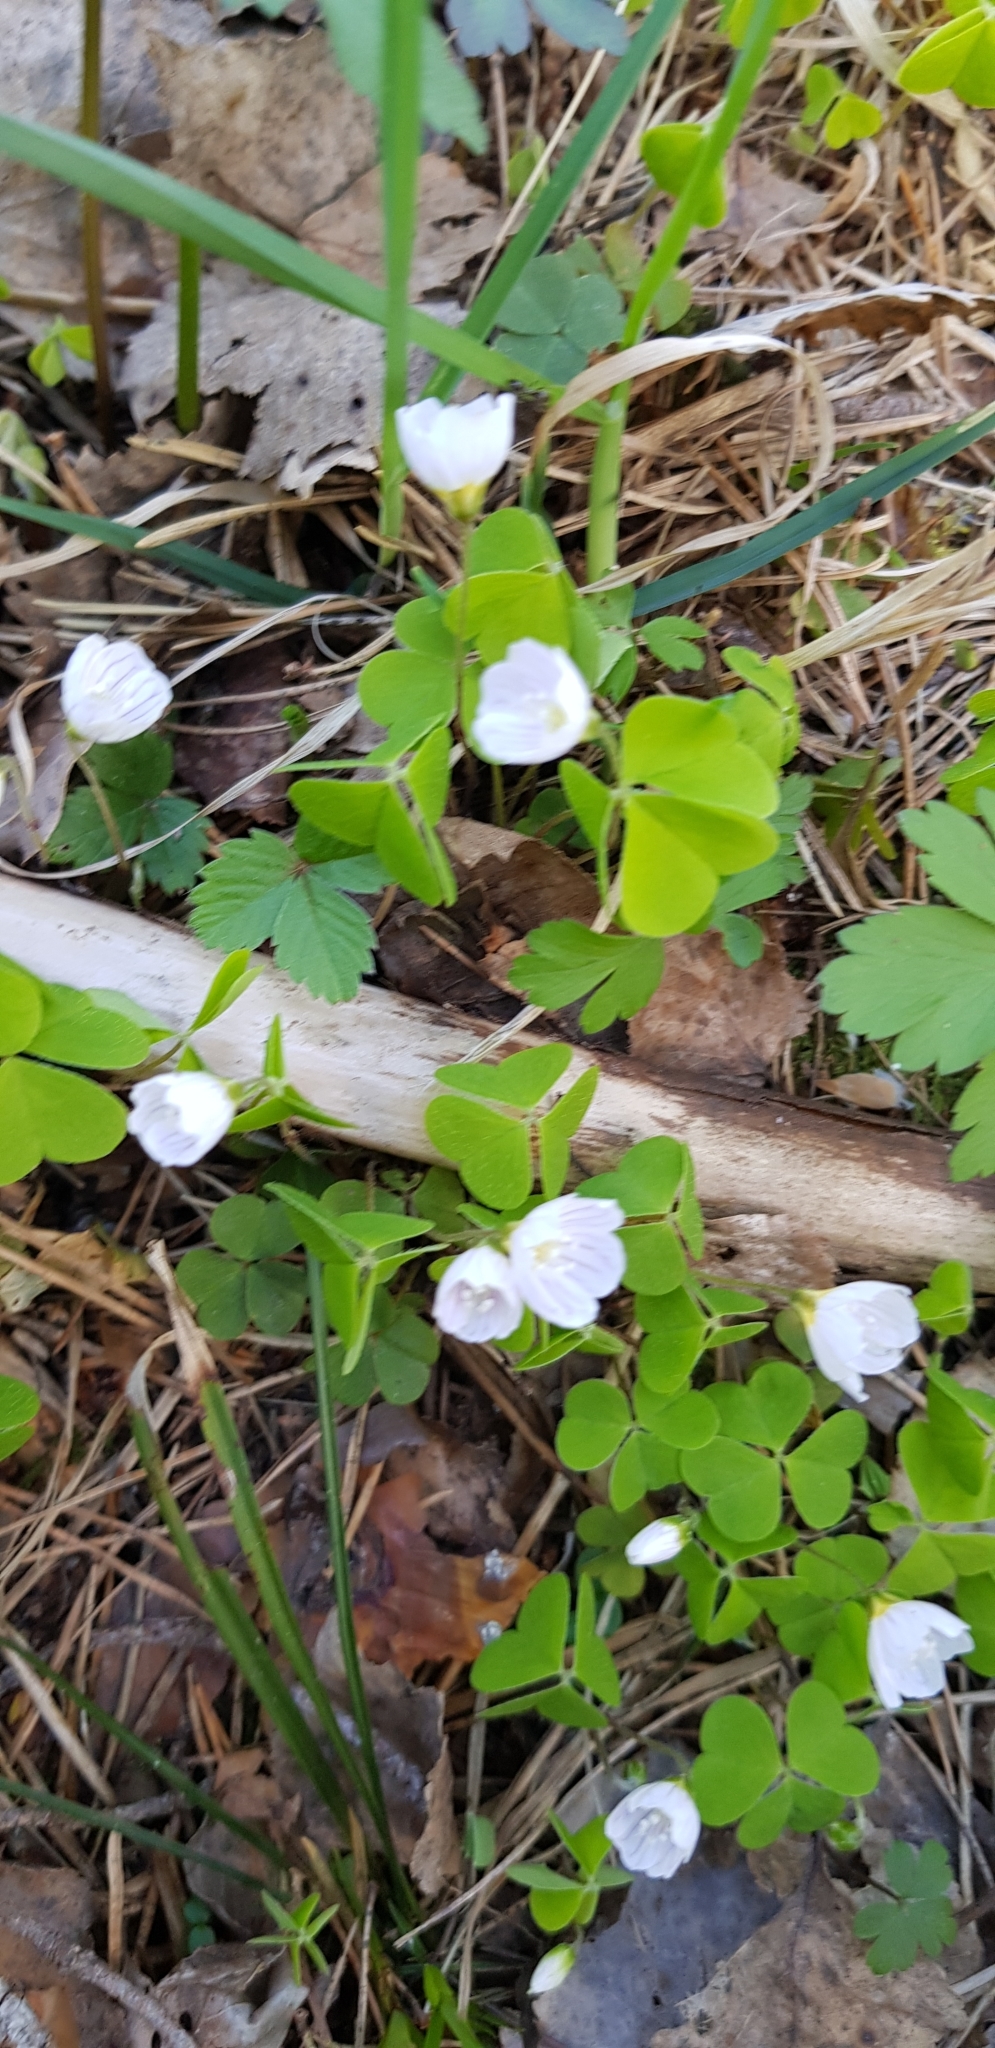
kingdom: Plantae
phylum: Tracheophyta
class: Magnoliopsida
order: Oxalidales
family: Oxalidaceae
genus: Oxalis
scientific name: Oxalis acetosella
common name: Wood-sorrel
